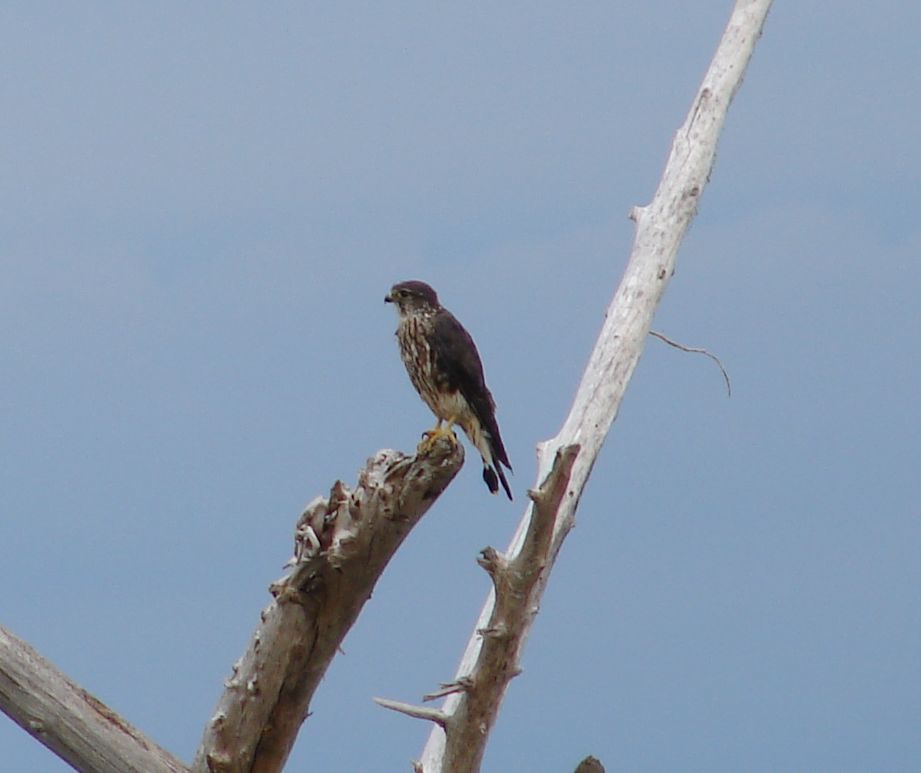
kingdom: Animalia
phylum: Chordata
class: Aves
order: Falconiformes
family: Falconidae
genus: Falco
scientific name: Falco columbarius
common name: Merlin
